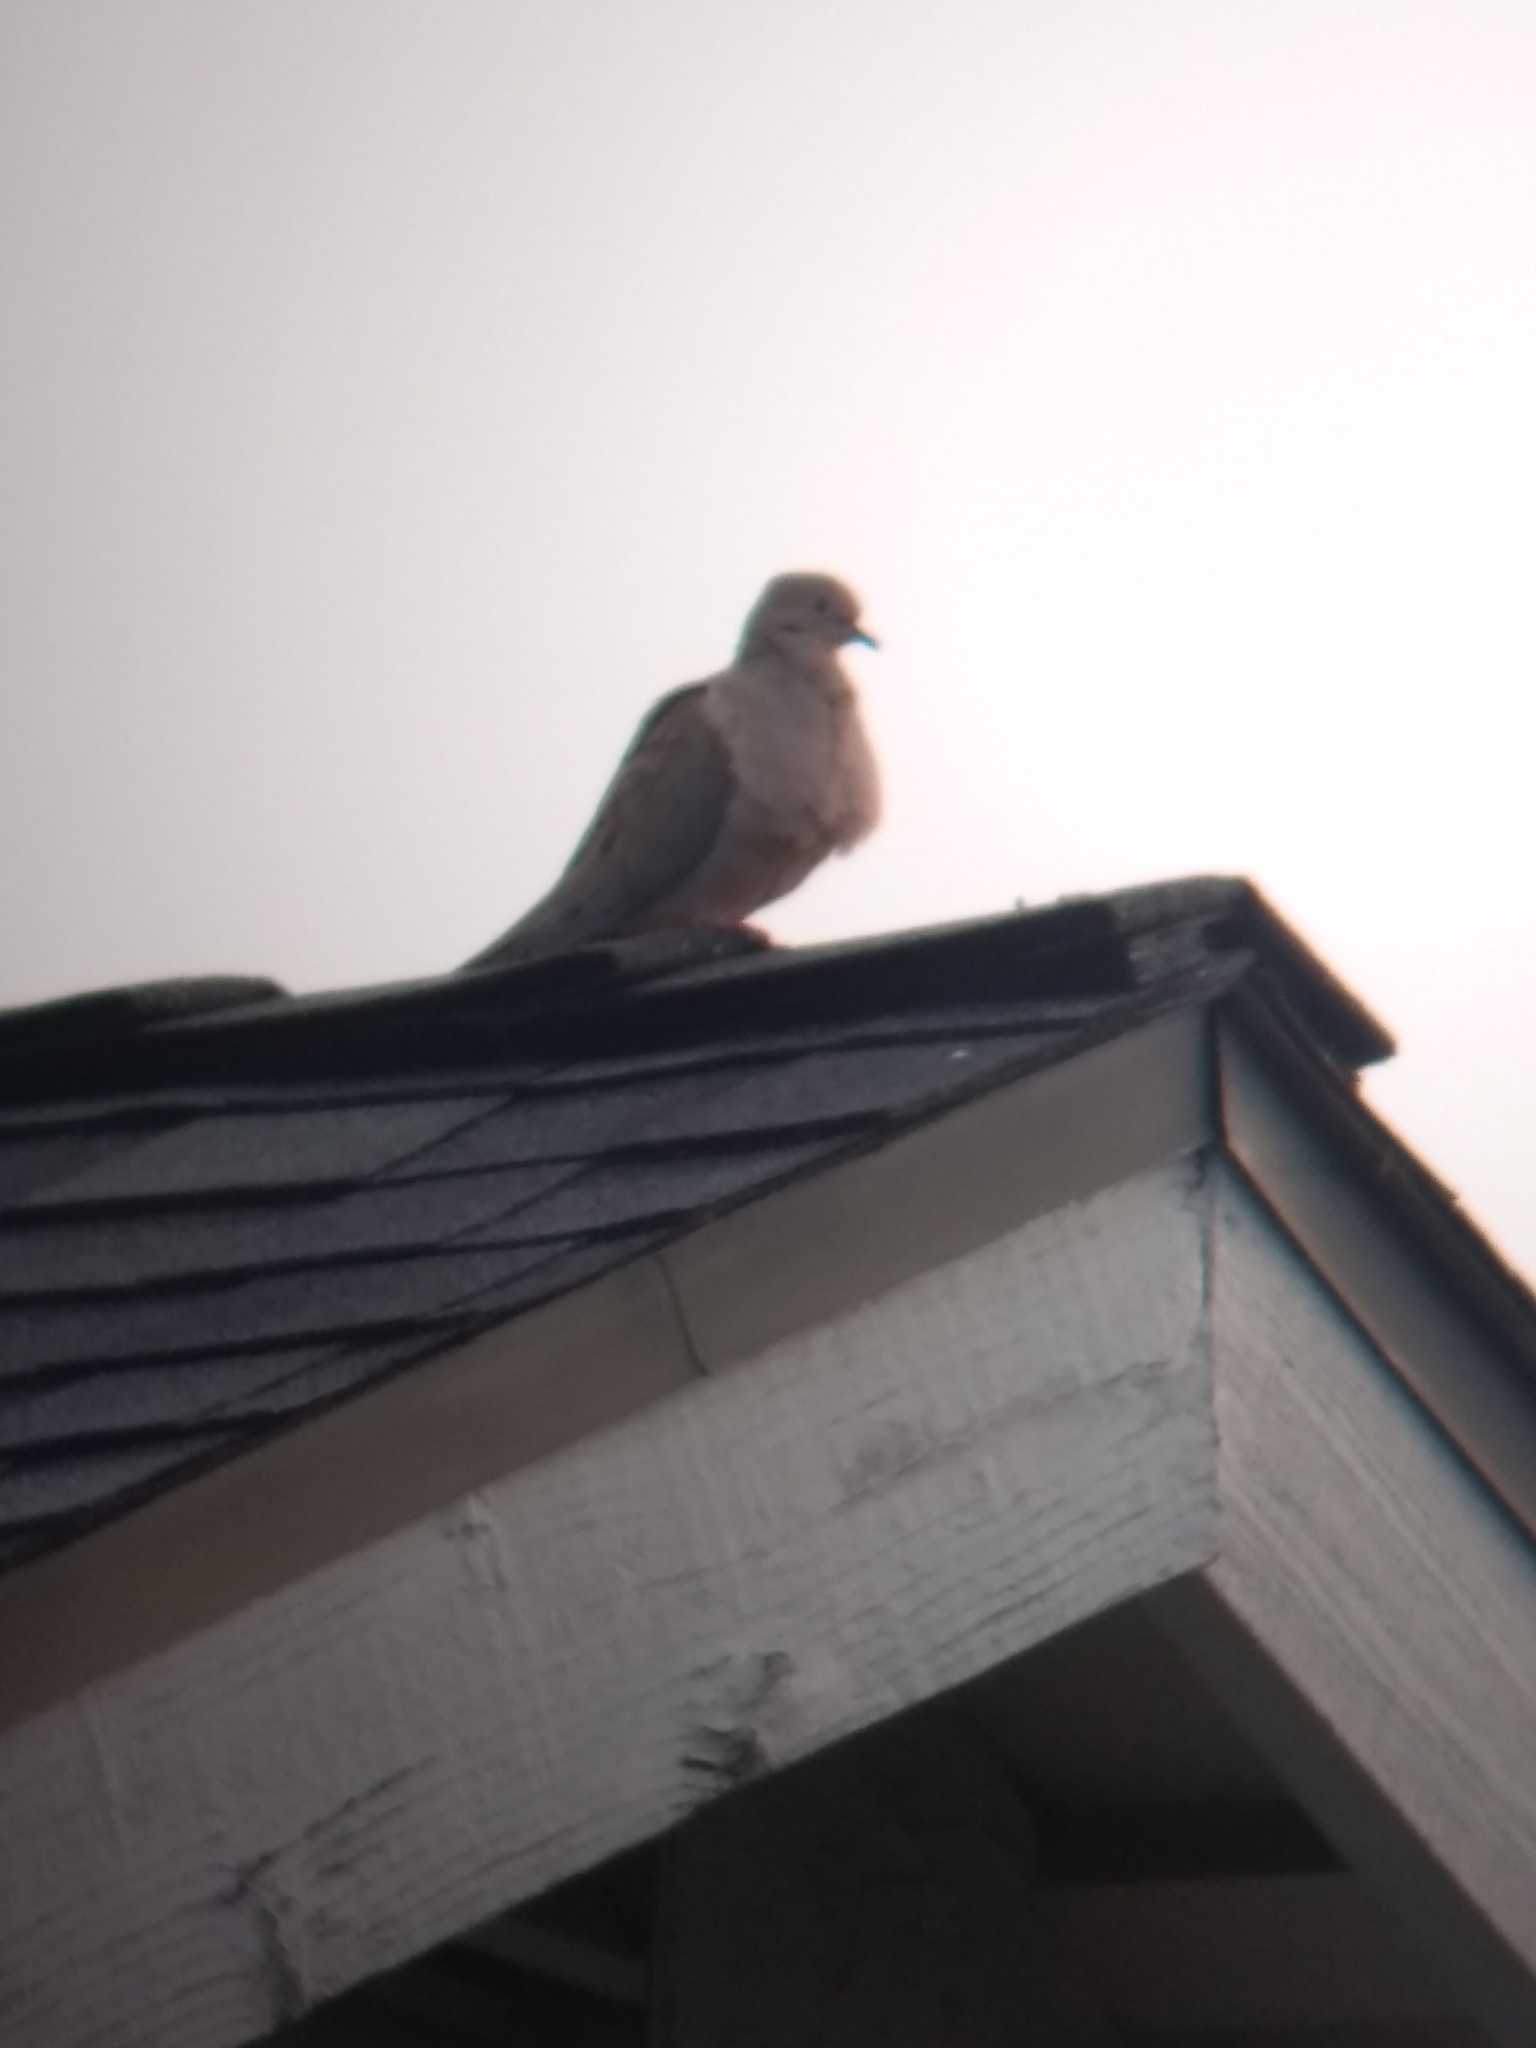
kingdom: Animalia
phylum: Chordata
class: Aves
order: Columbiformes
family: Columbidae
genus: Zenaida
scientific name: Zenaida macroura
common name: Mourning dove
